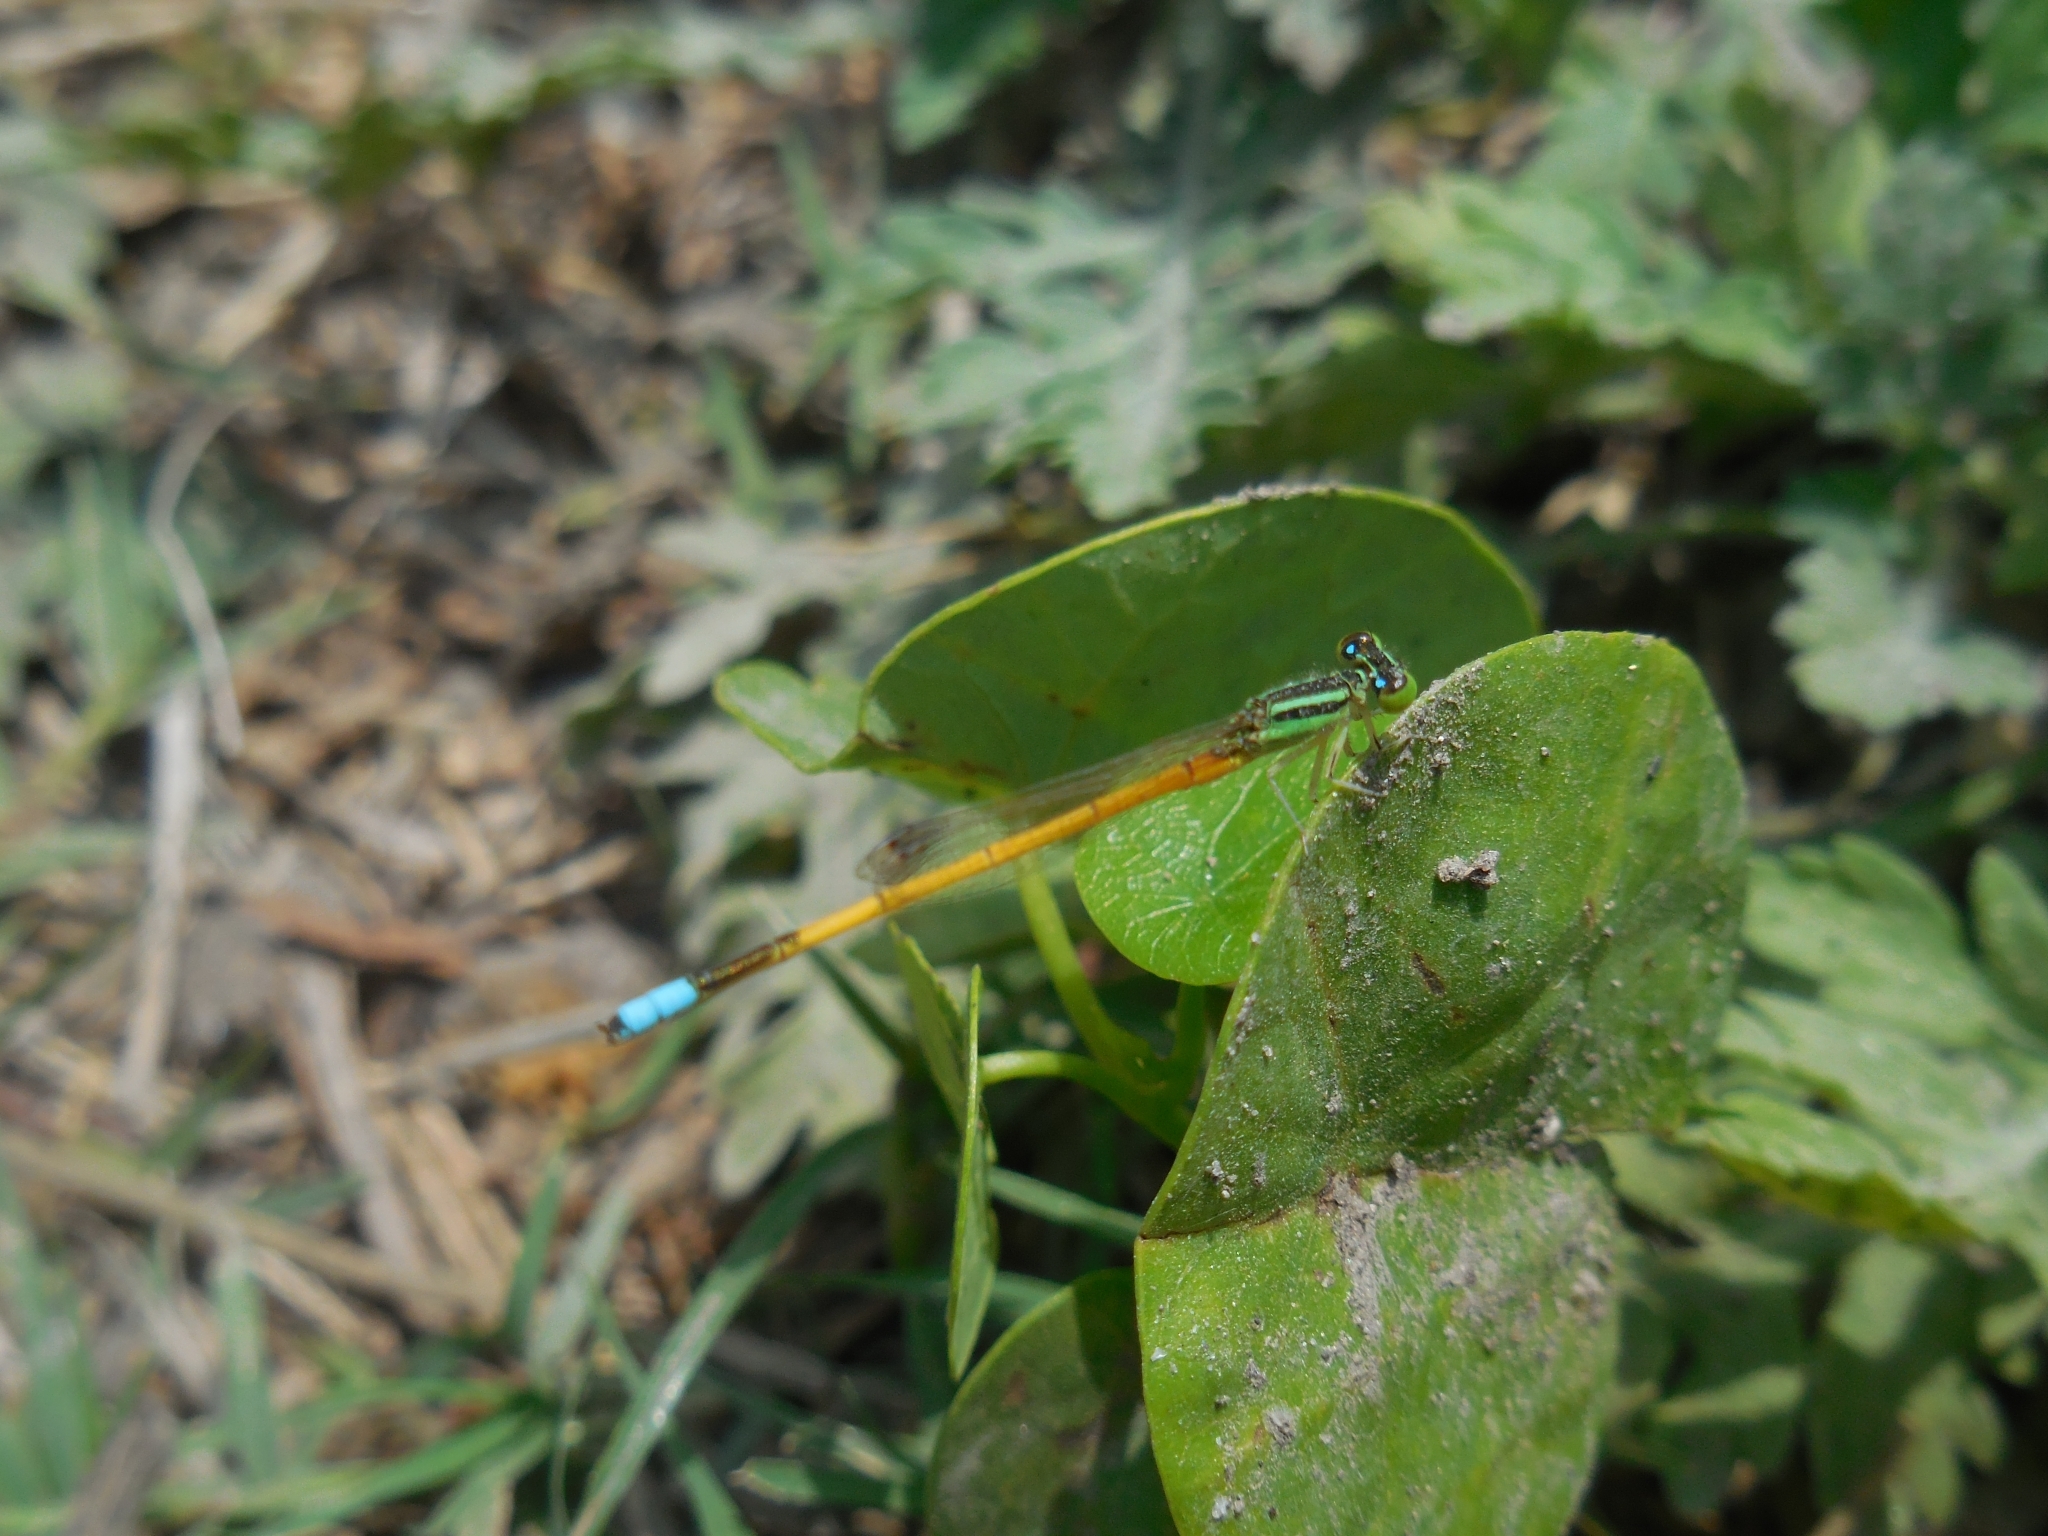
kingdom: Animalia
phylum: Arthropoda
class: Insecta
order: Odonata
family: Coenagrionidae
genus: Ischnura
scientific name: Ischnura rubilio
